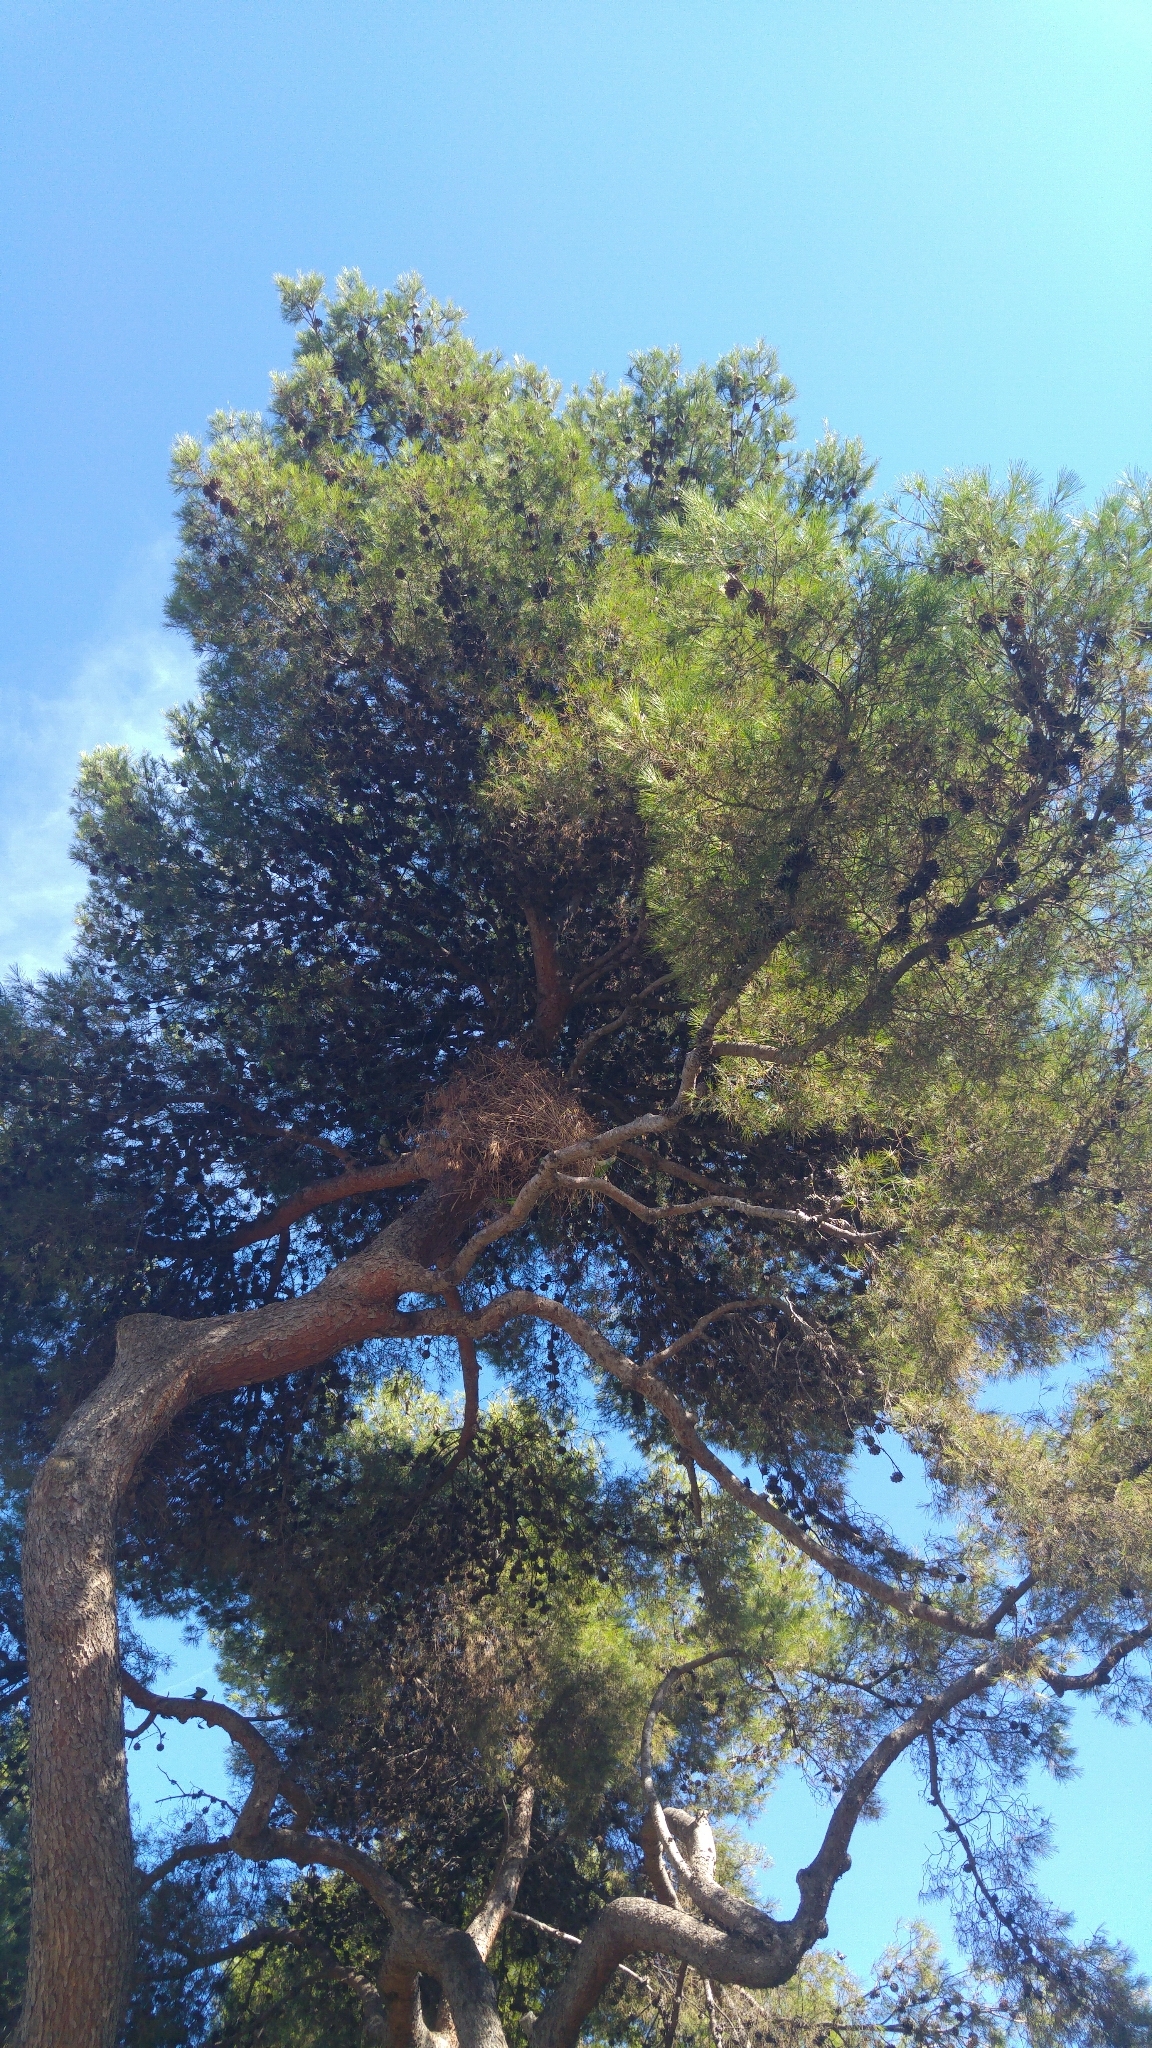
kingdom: Animalia
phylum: Chordata
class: Aves
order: Psittaciformes
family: Psittacidae
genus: Myiopsitta
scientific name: Myiopsitta monachus
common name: Monk parakeet
